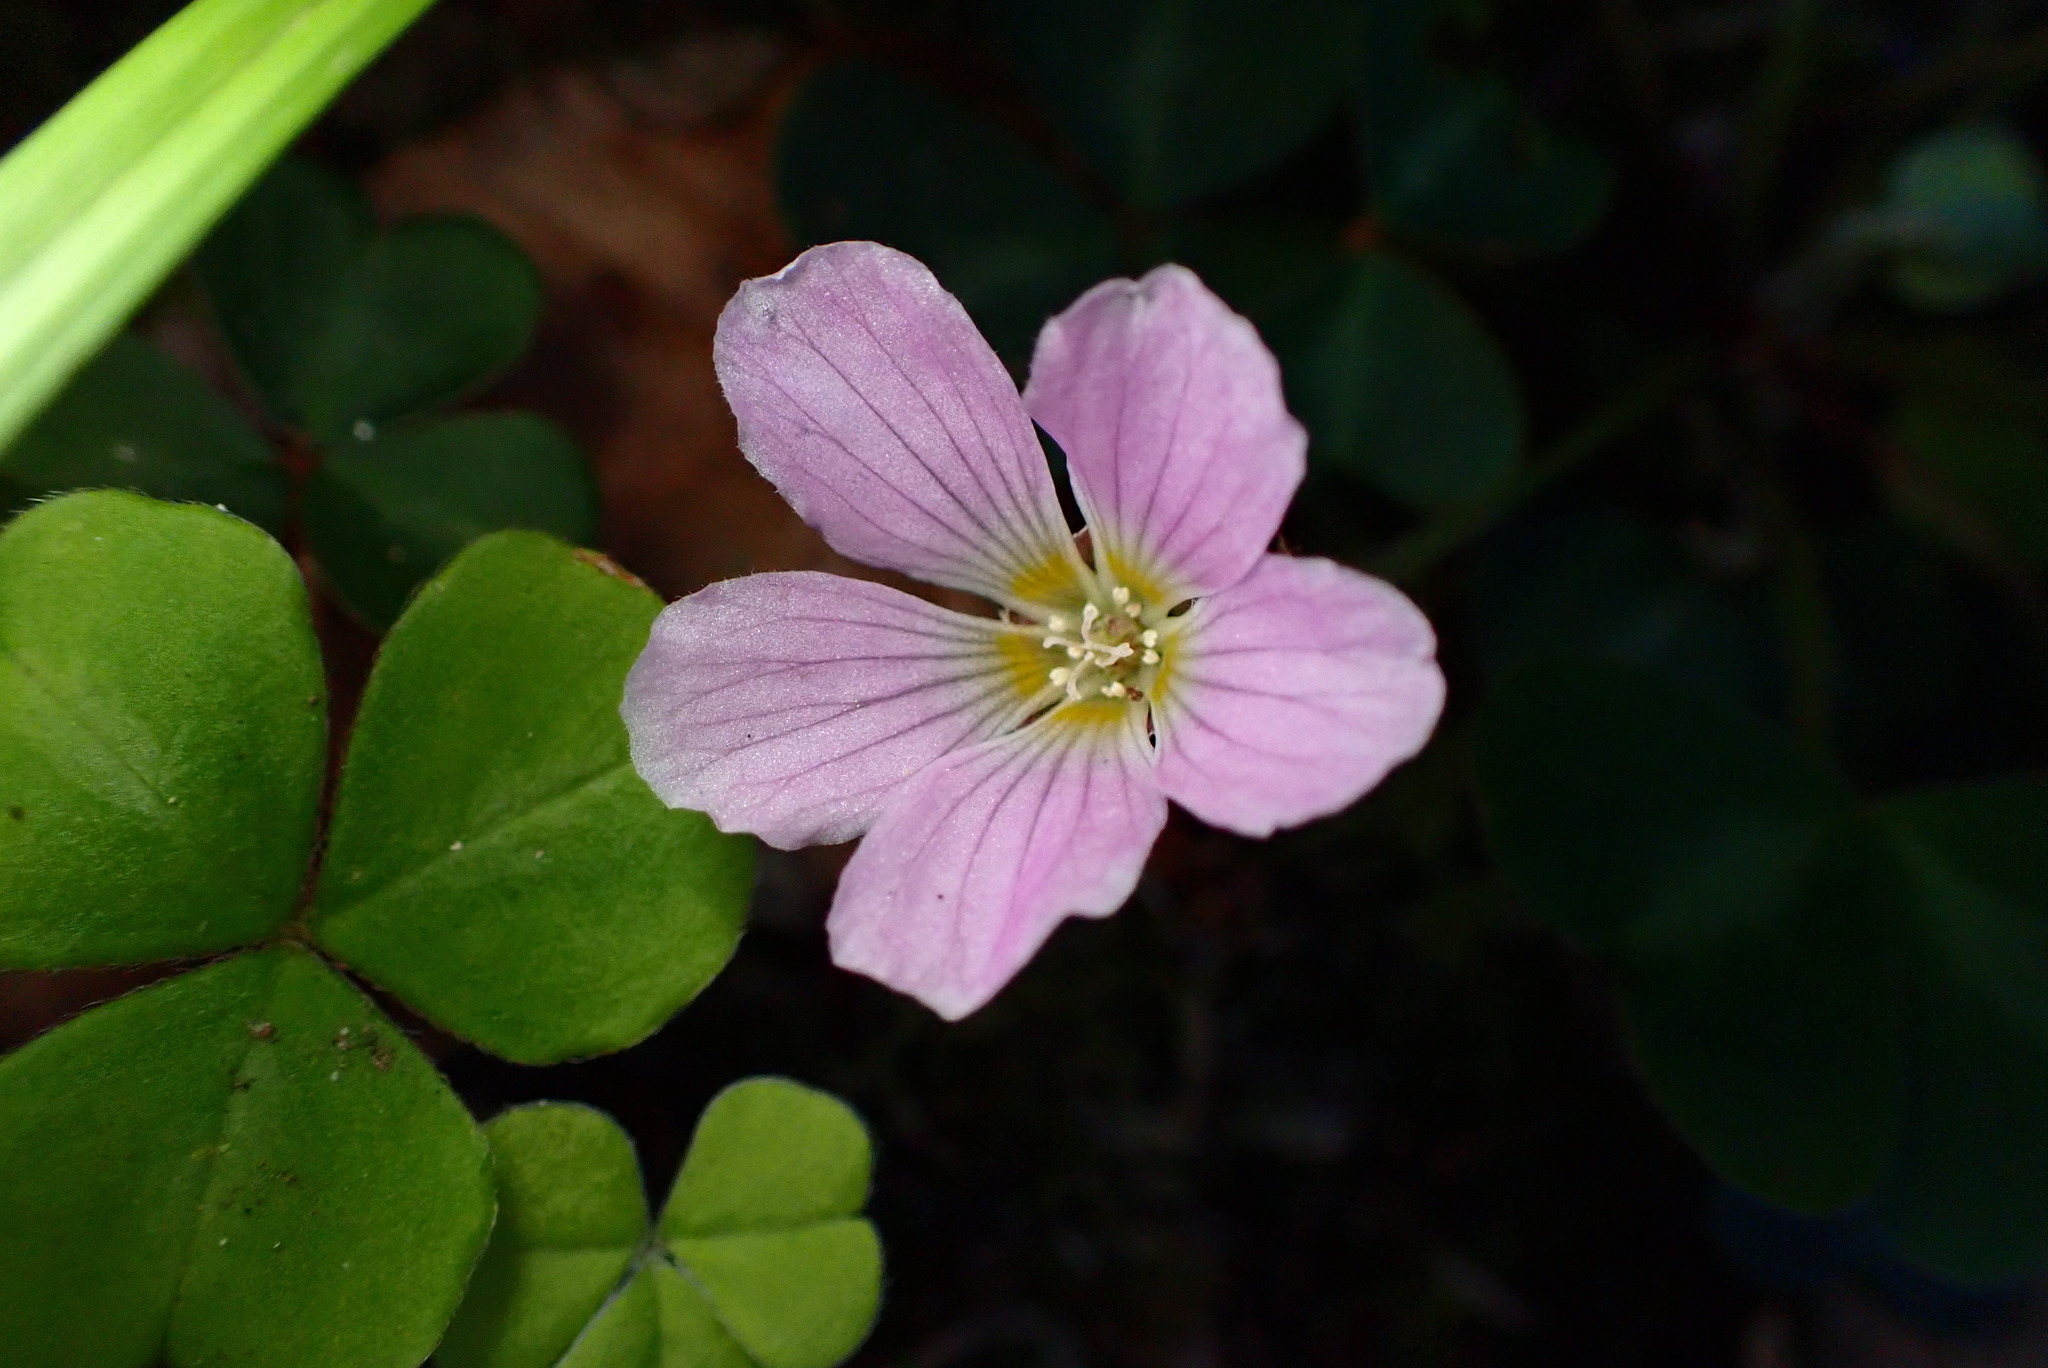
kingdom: Plantae
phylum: Tracheophyta
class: Magnoliopsida
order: Oxalidales
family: Oxalidaceae
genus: Oxalis
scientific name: Oxalis oregana
